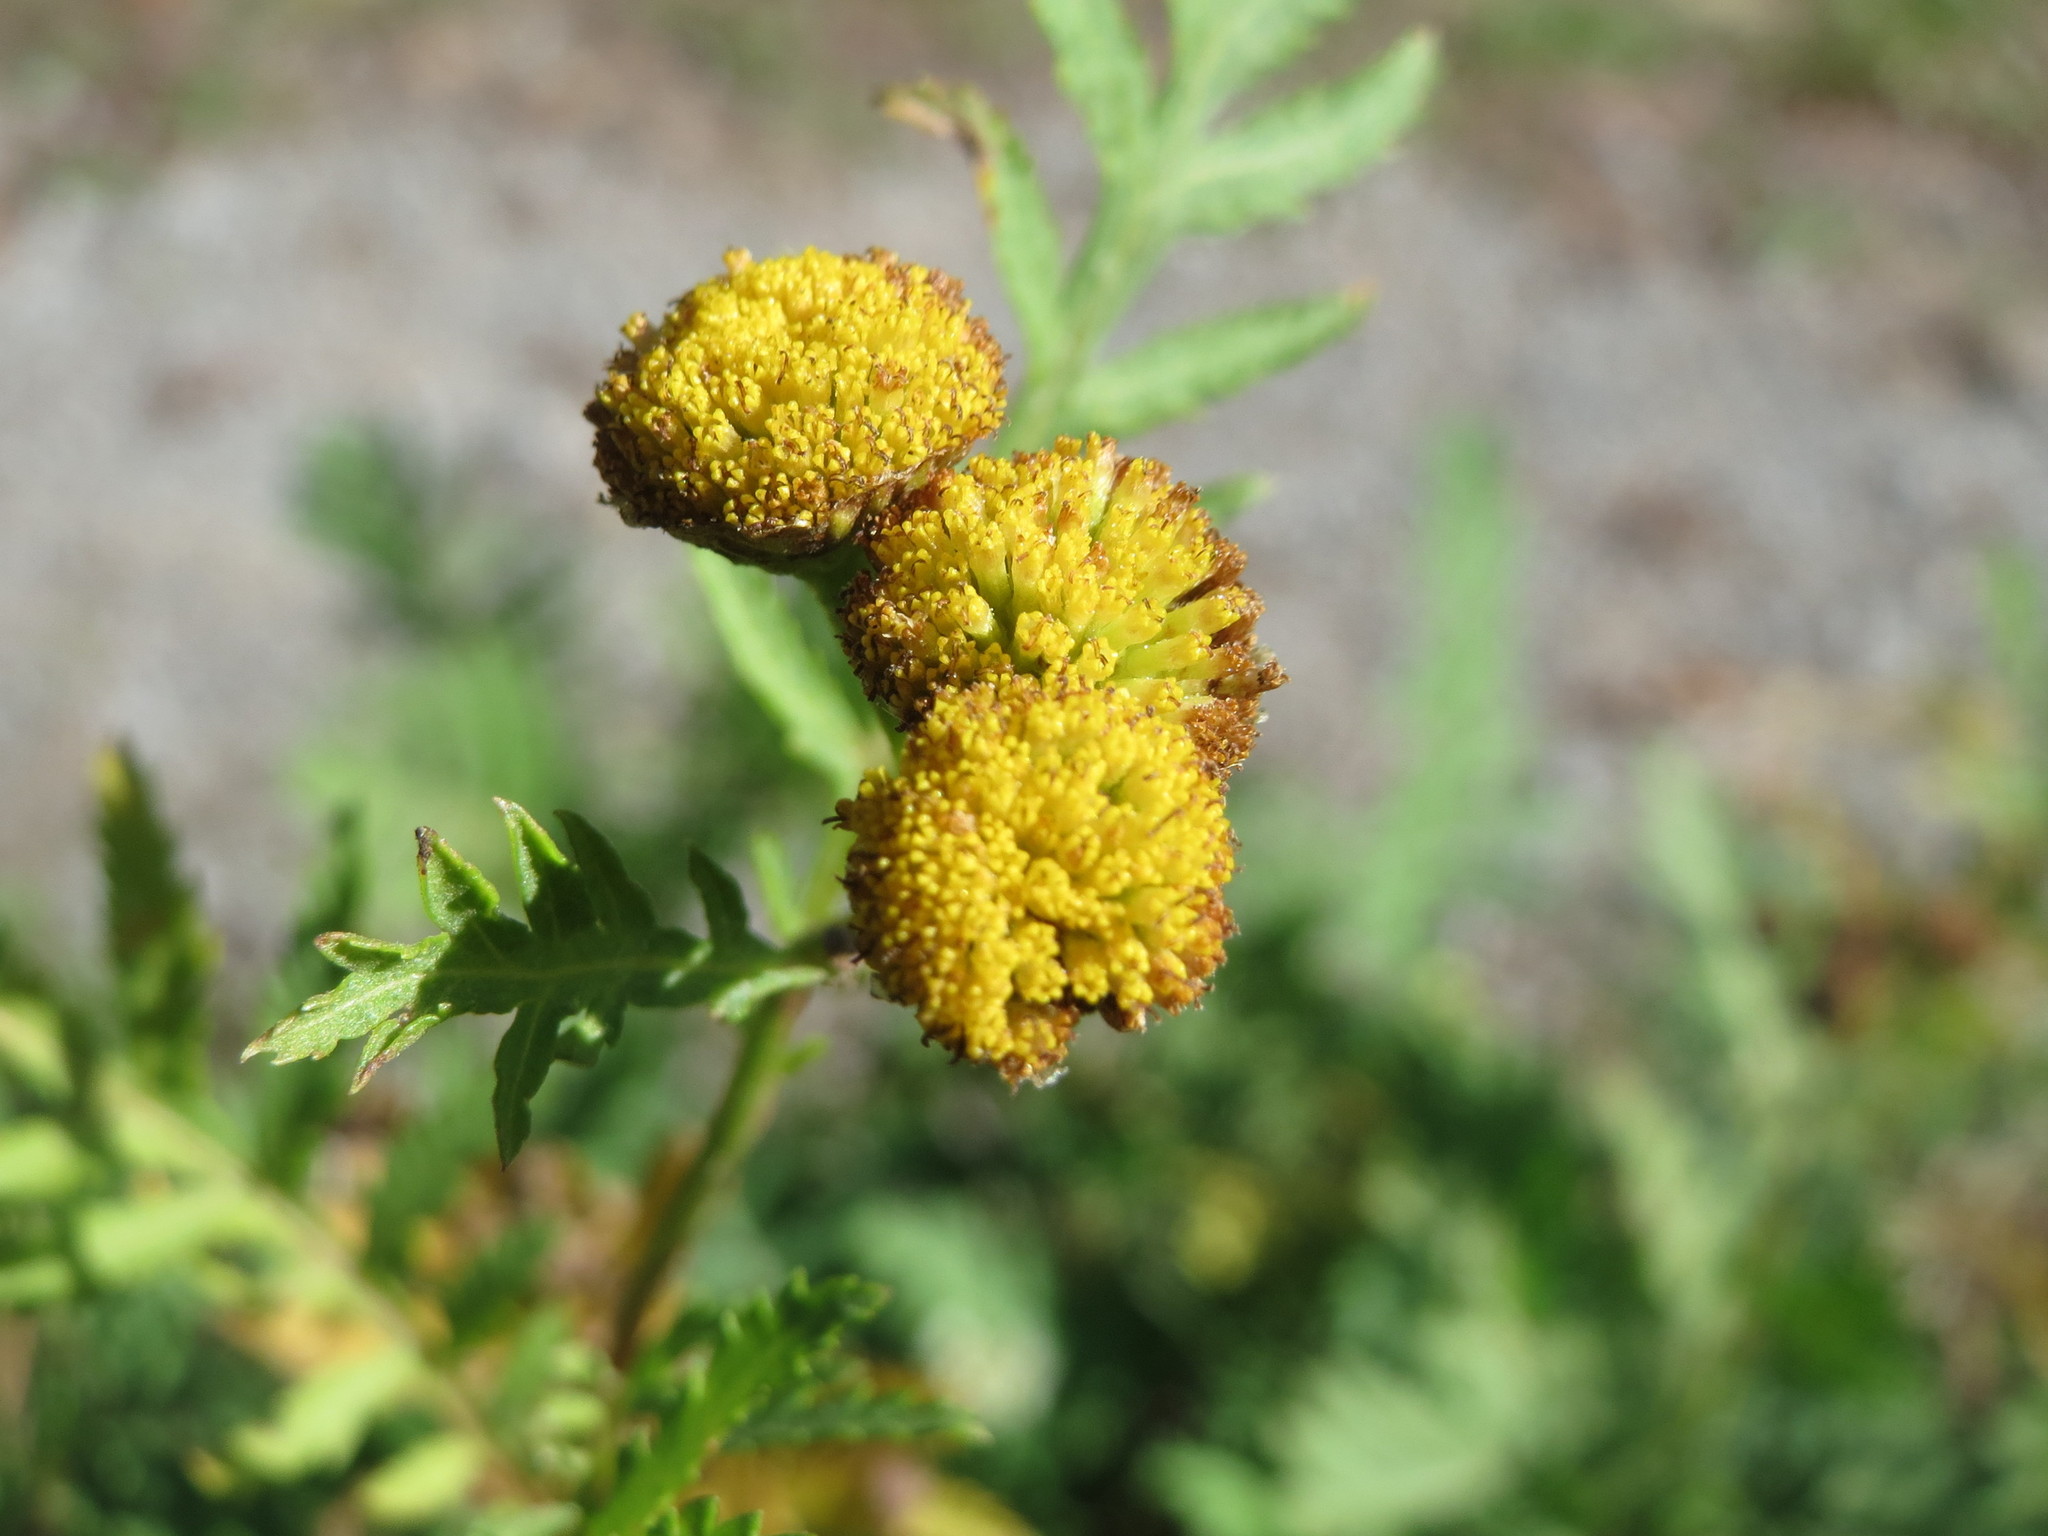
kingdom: Plantae
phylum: Tracheophyta
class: Magnoliopsida
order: Asterales
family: Asteraceae
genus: Tanacetum
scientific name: Tanacetum vulgare
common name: Common tansy
